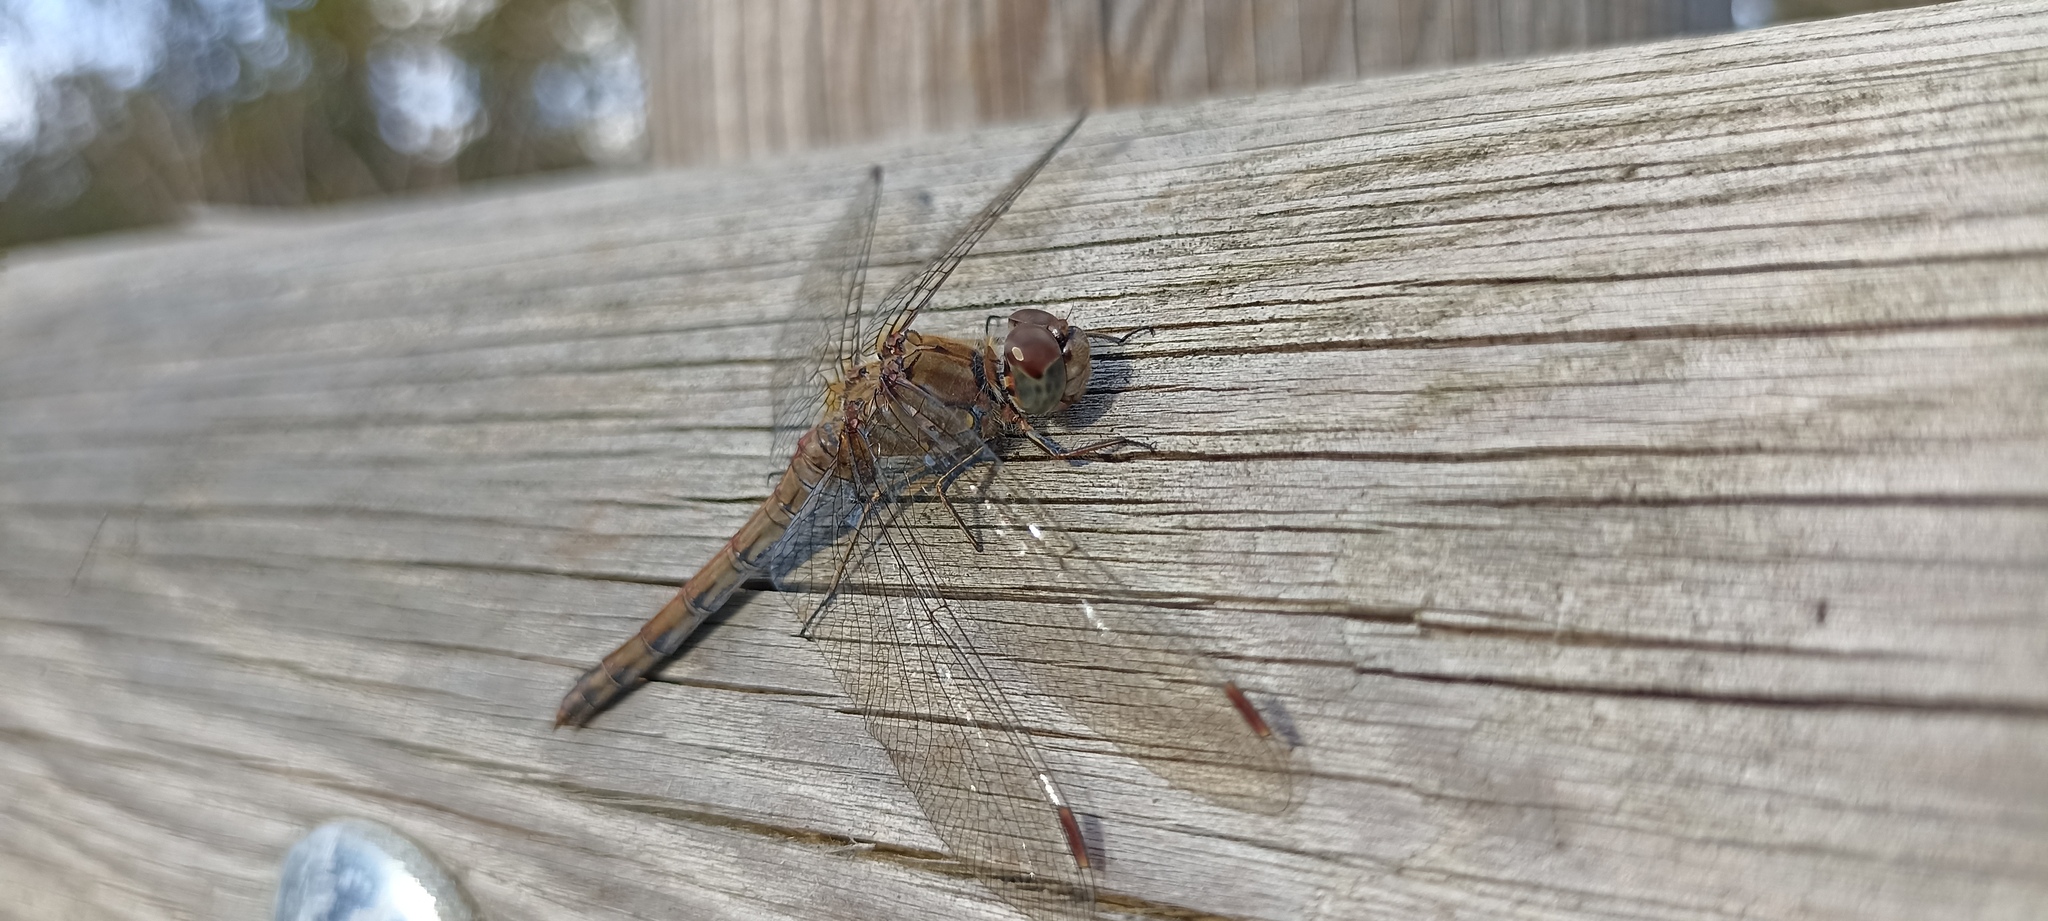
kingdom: Animalia
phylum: Arthropoda
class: Insecta
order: Odonata
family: Libellulidae
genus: Sympetrum
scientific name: Sympetrum striolatum
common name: Common darter
